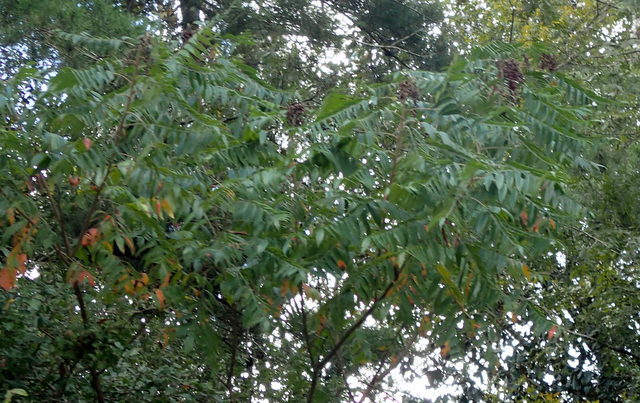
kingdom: Plantae
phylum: Tracheophyta
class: Magnoliopsida
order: Sapindales
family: Anacardiaceae
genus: Rhus
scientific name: Rhus copallina
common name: Shining sumac
